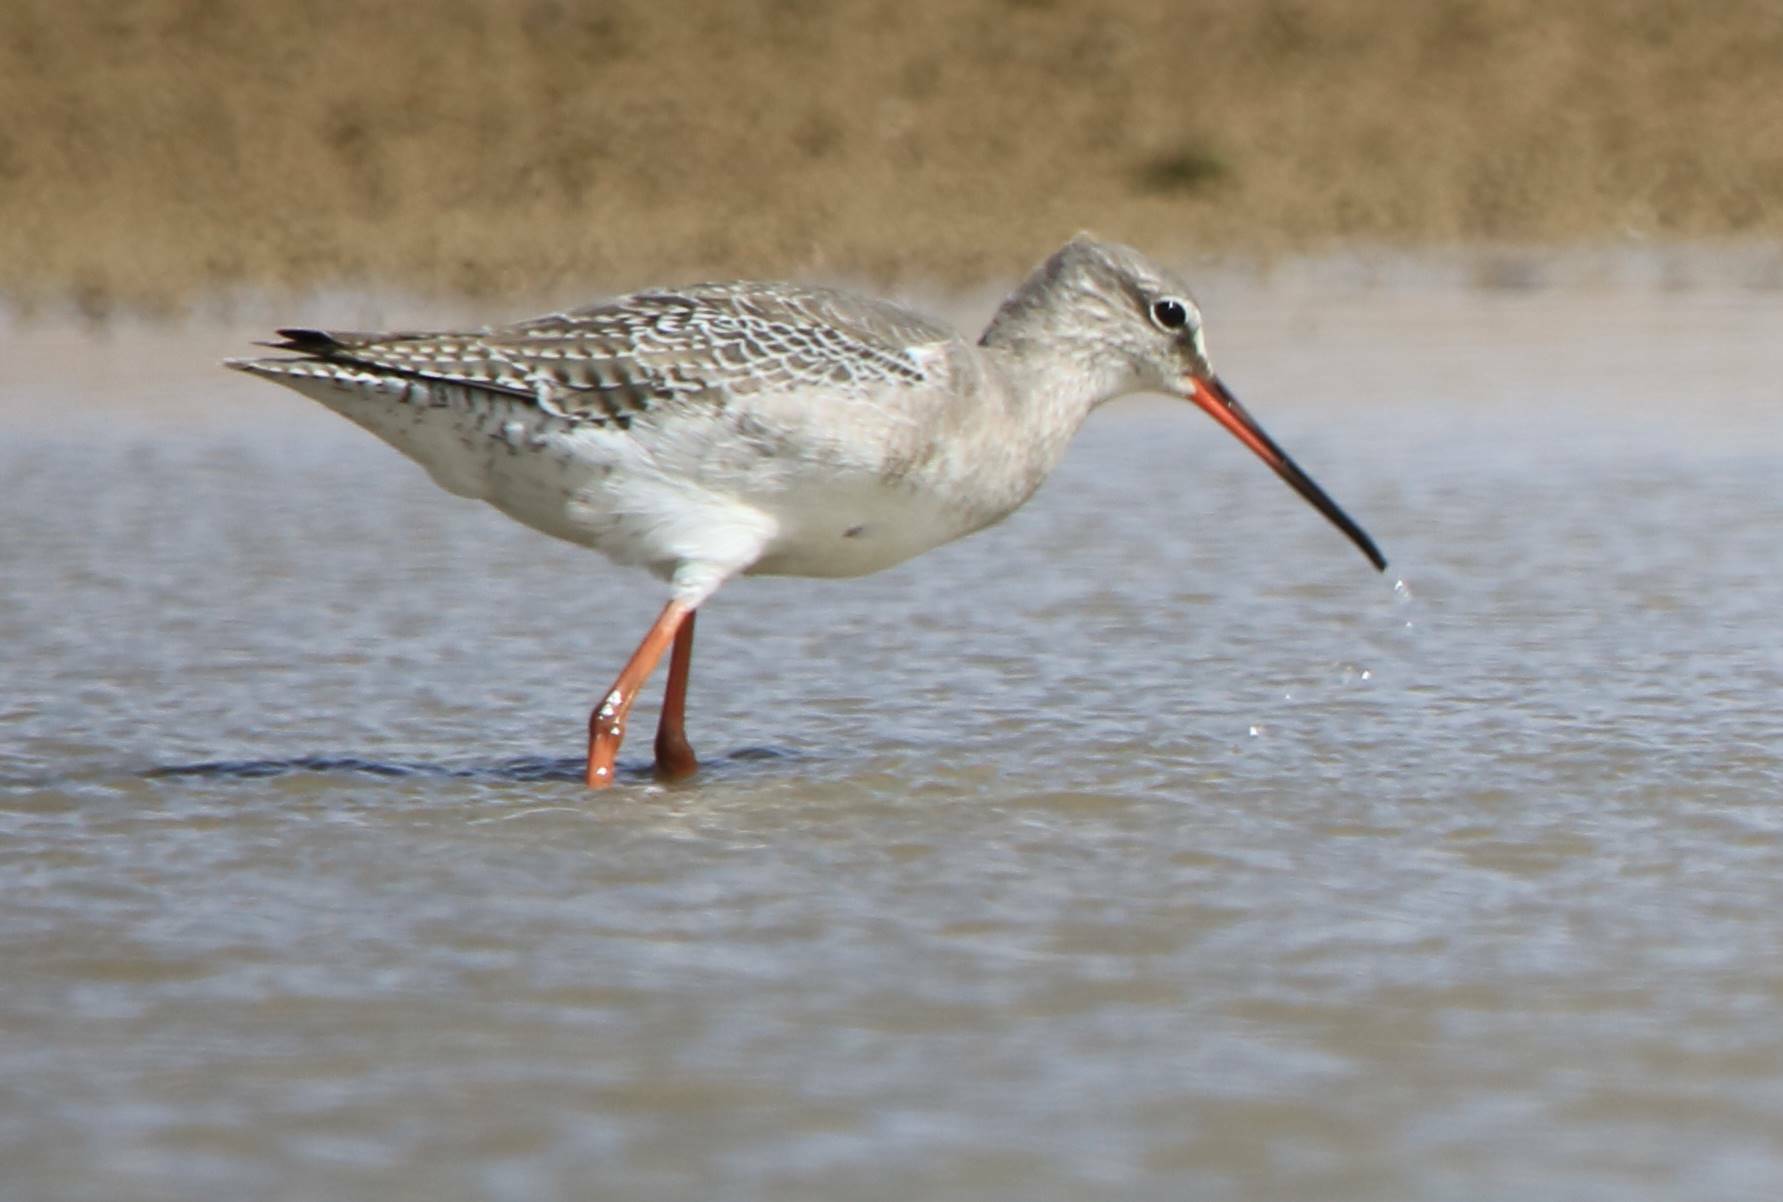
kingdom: Animalia
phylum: Chordata
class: Aves
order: Charadriiformes
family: Scolopacidae
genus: Tringa
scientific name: Tringa erythropus
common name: Spotted redshank
